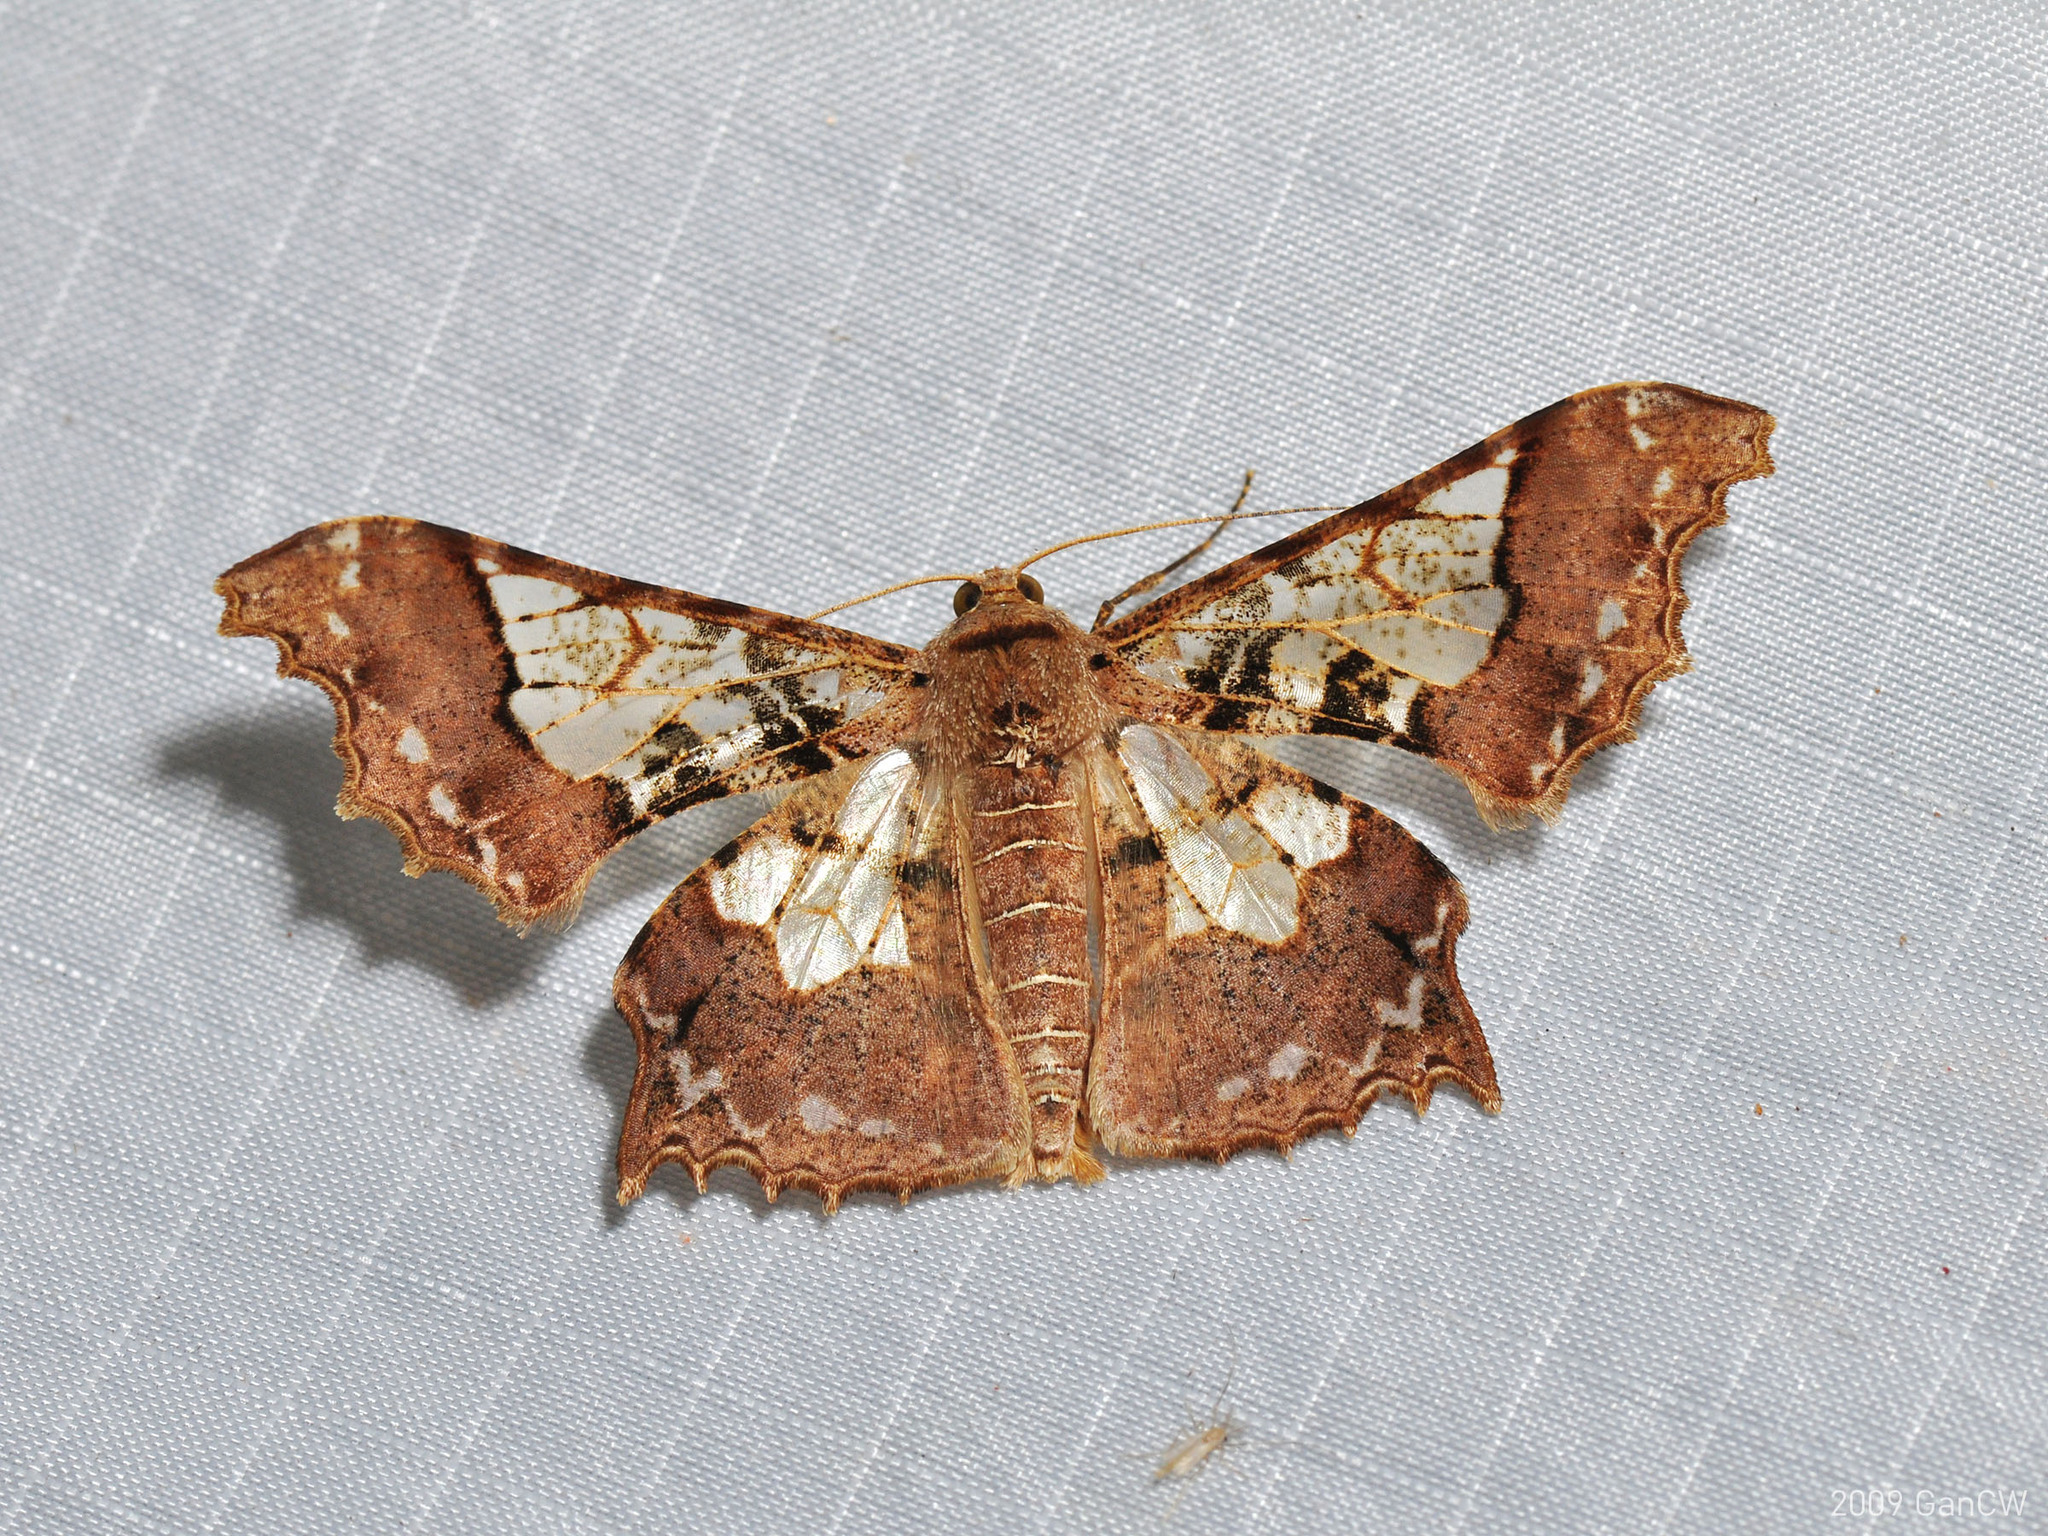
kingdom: Animalia
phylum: Arthropoda
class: Insecta
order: Lepidoptera
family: Geometridae
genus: Krananda
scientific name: Krananda semihyalina
